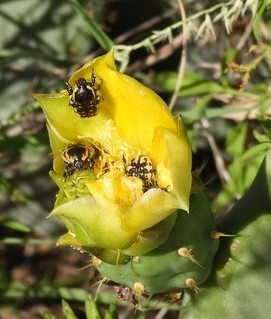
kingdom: Animalia
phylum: Arthropoda
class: Insecta
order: Coleoptera
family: Scarabaeidae
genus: Euphoria
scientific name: Euphoria kernii
